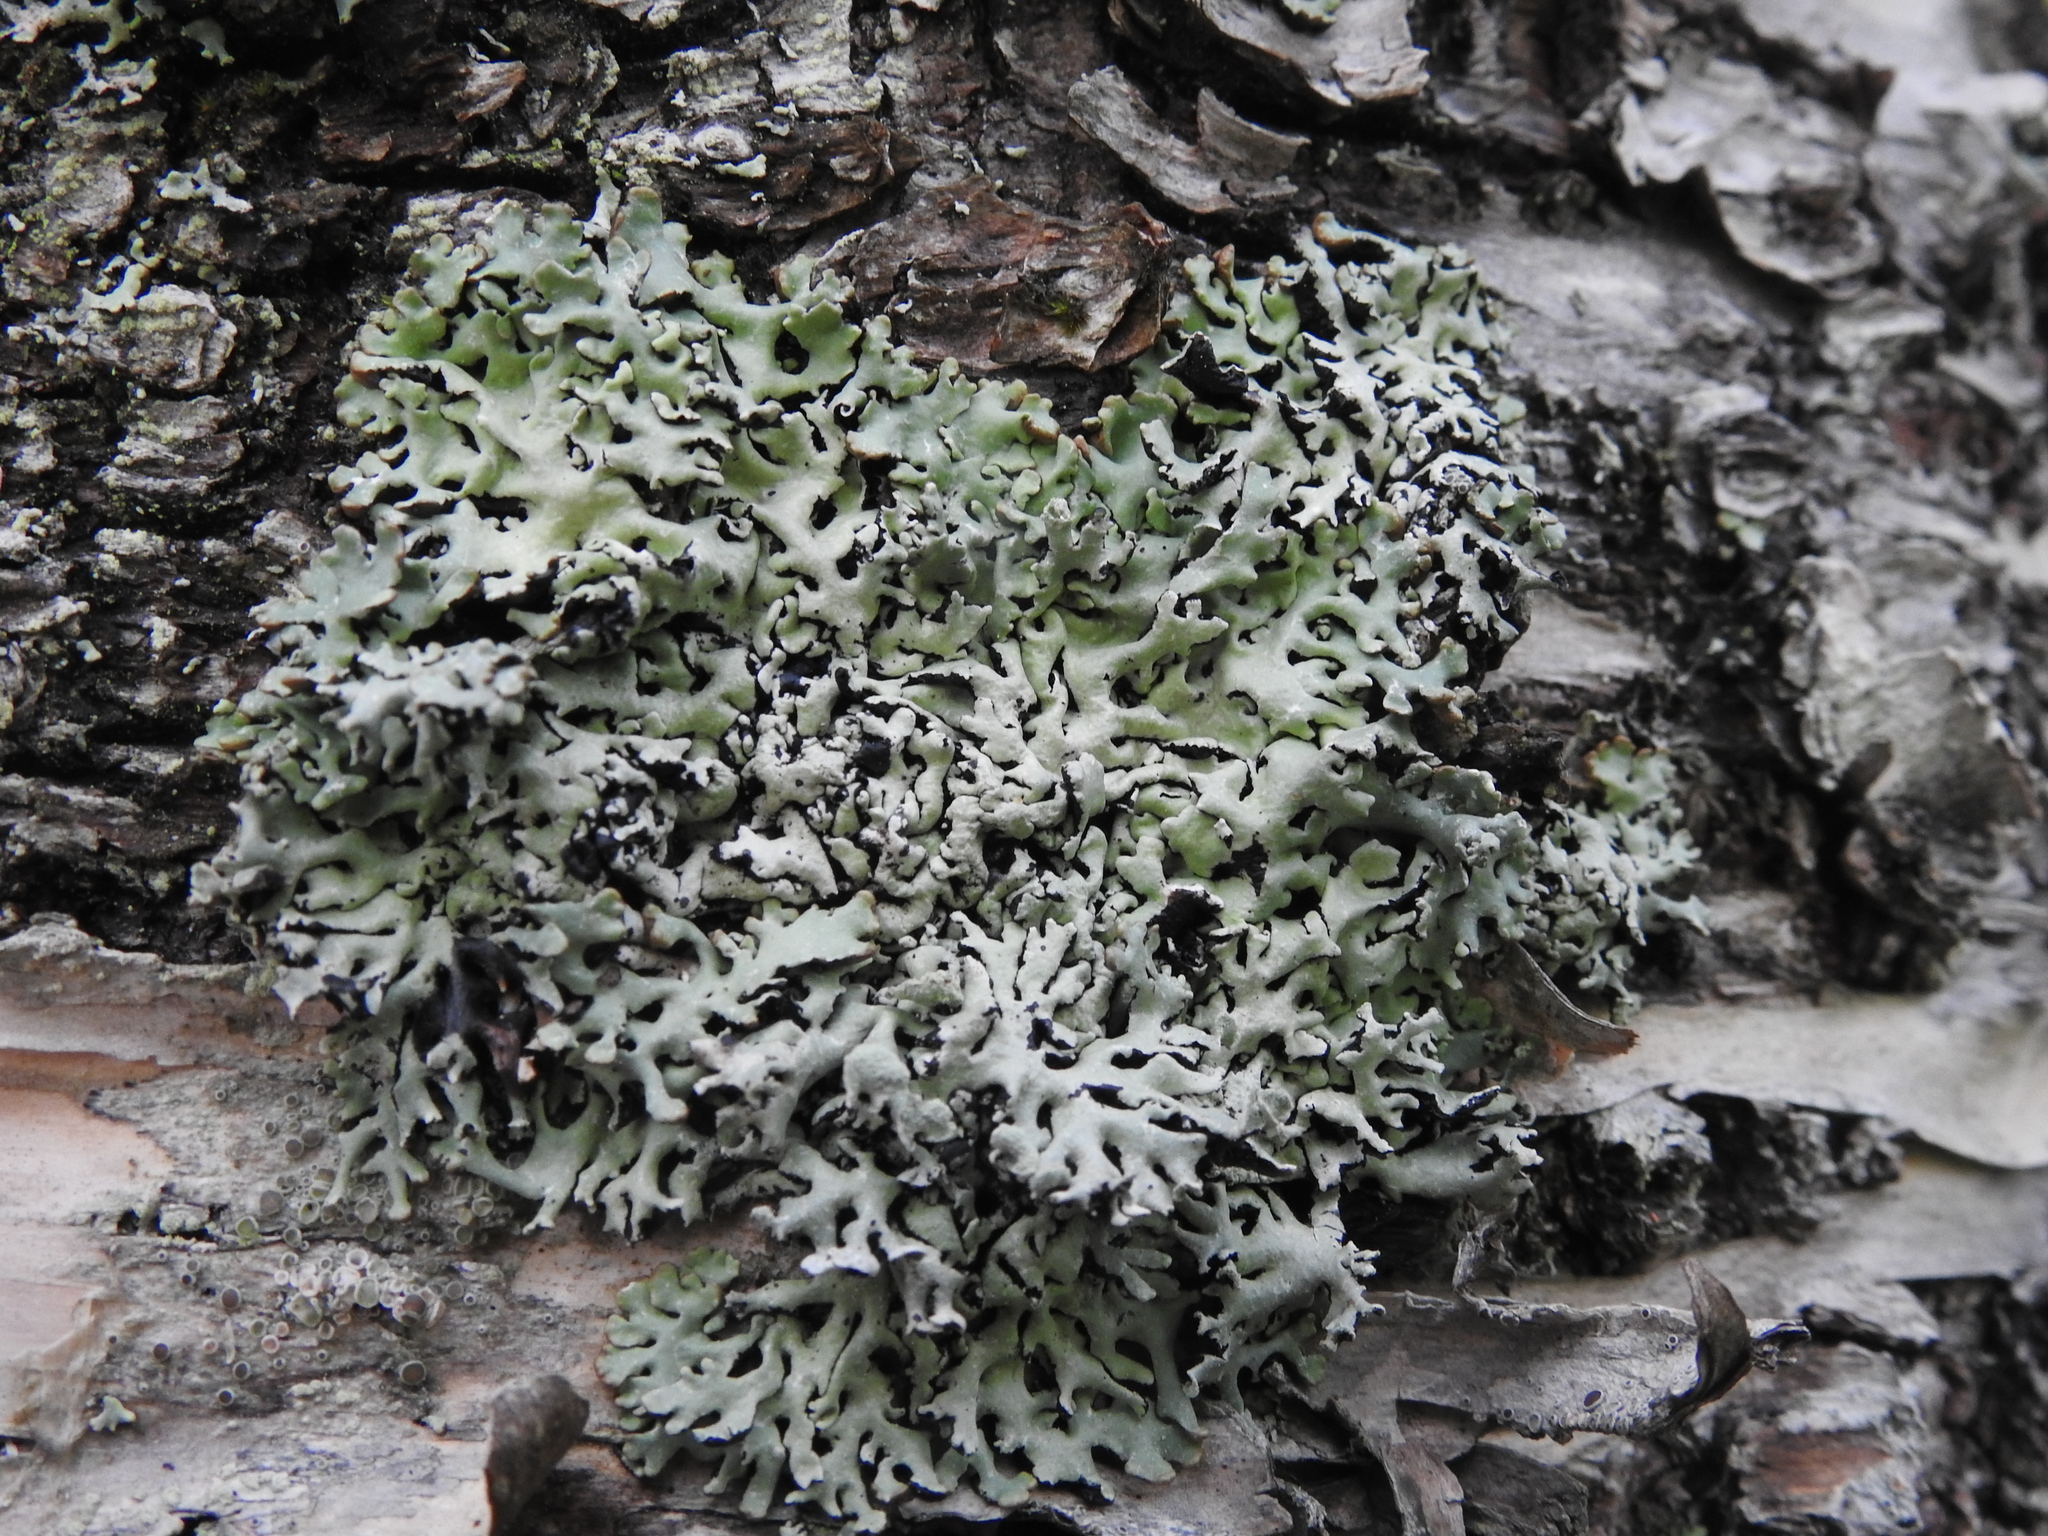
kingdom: Fungi
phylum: Ascomycota
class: Lecanoromycetes
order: Lecanorales
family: Parmeliaceae
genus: Hypogymnia
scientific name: Hypogymnia physodes
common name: Dark crottle
